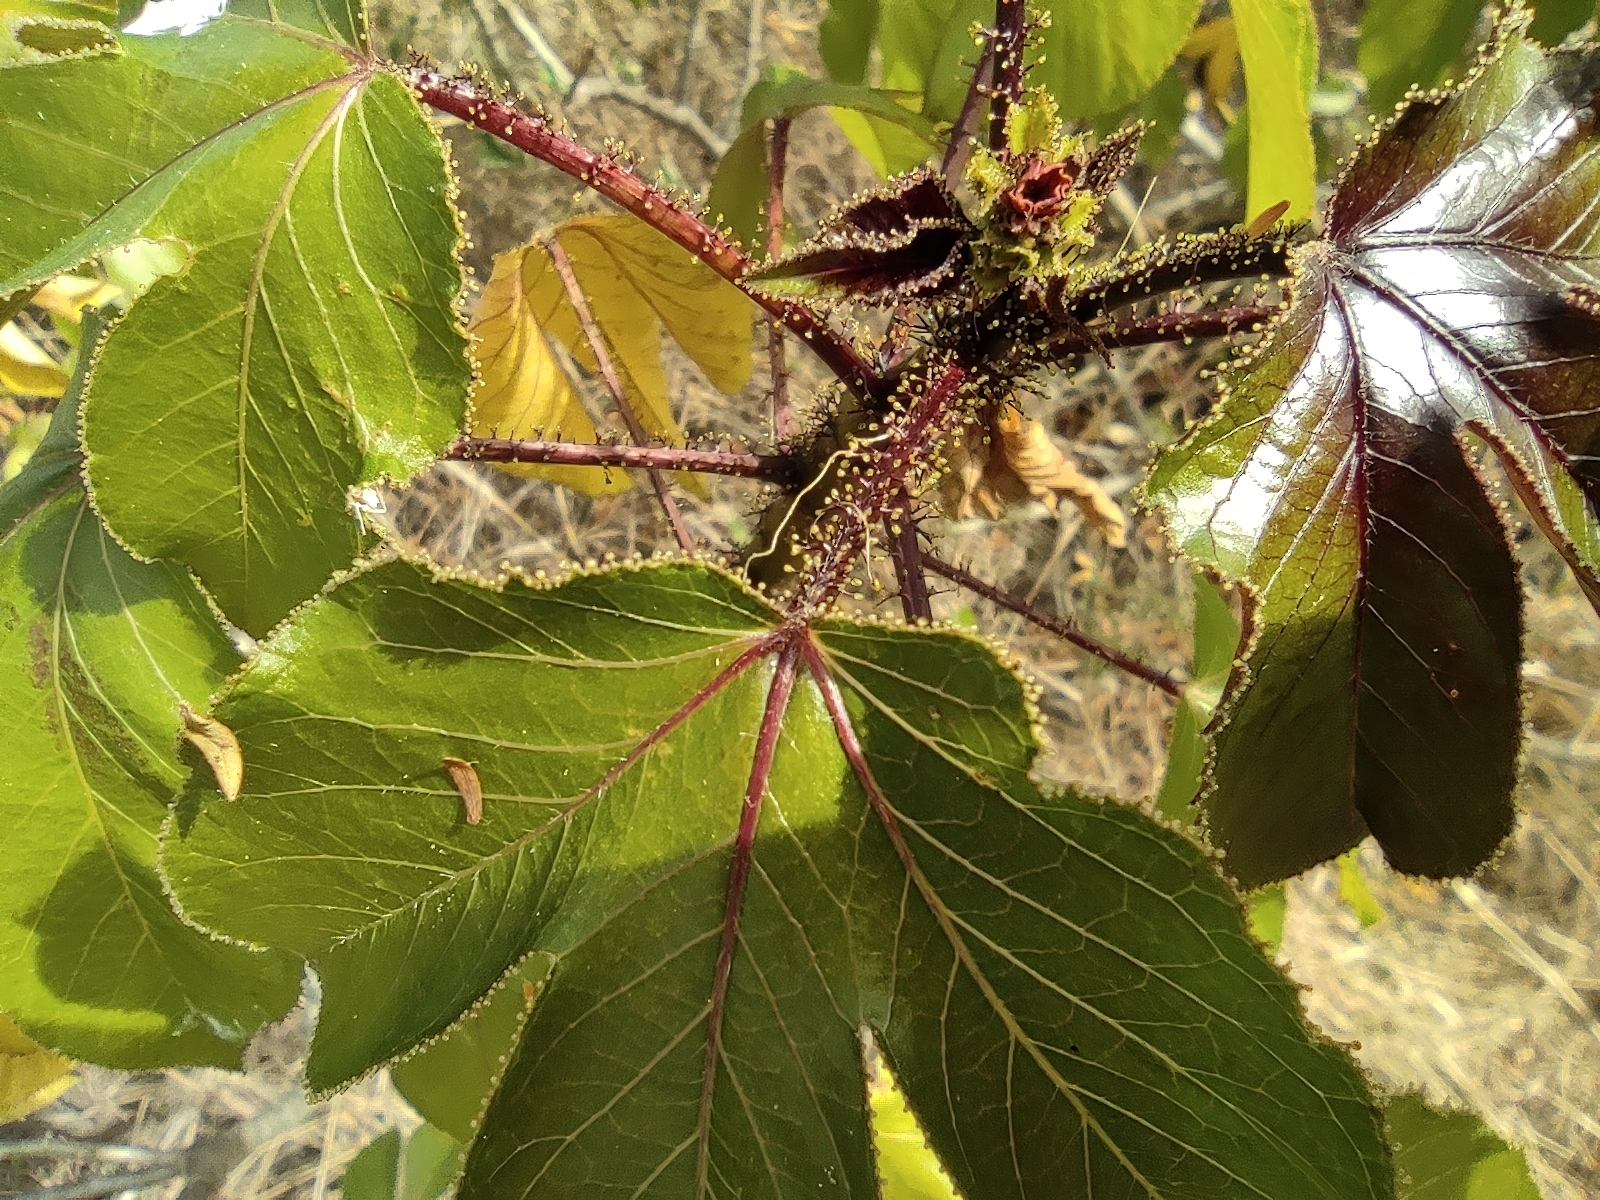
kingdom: Plantae
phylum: Tracheophyta
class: Magnoliopsida
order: Malpighiales
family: Euphorbiaceae
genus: Jatropha
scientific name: Jatropha gossypiifolia
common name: Bellyache bush
